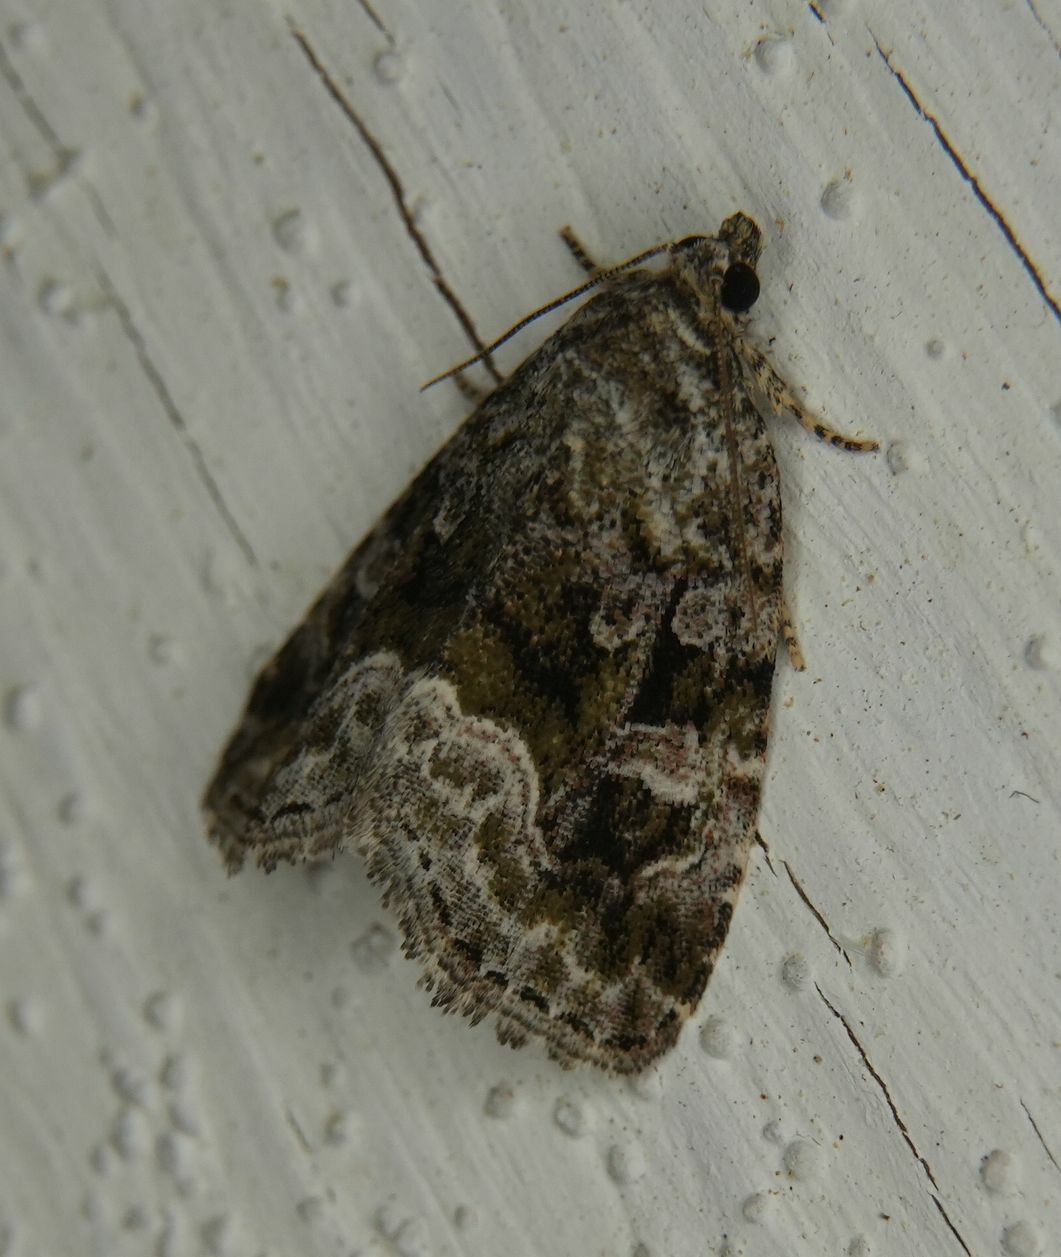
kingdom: Animalia
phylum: Arthropoda
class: Insecta
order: Lepidoptera
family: Noctuidae
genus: Protodeltote
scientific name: Protodeltote muscosula
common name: Large mossy glyph
